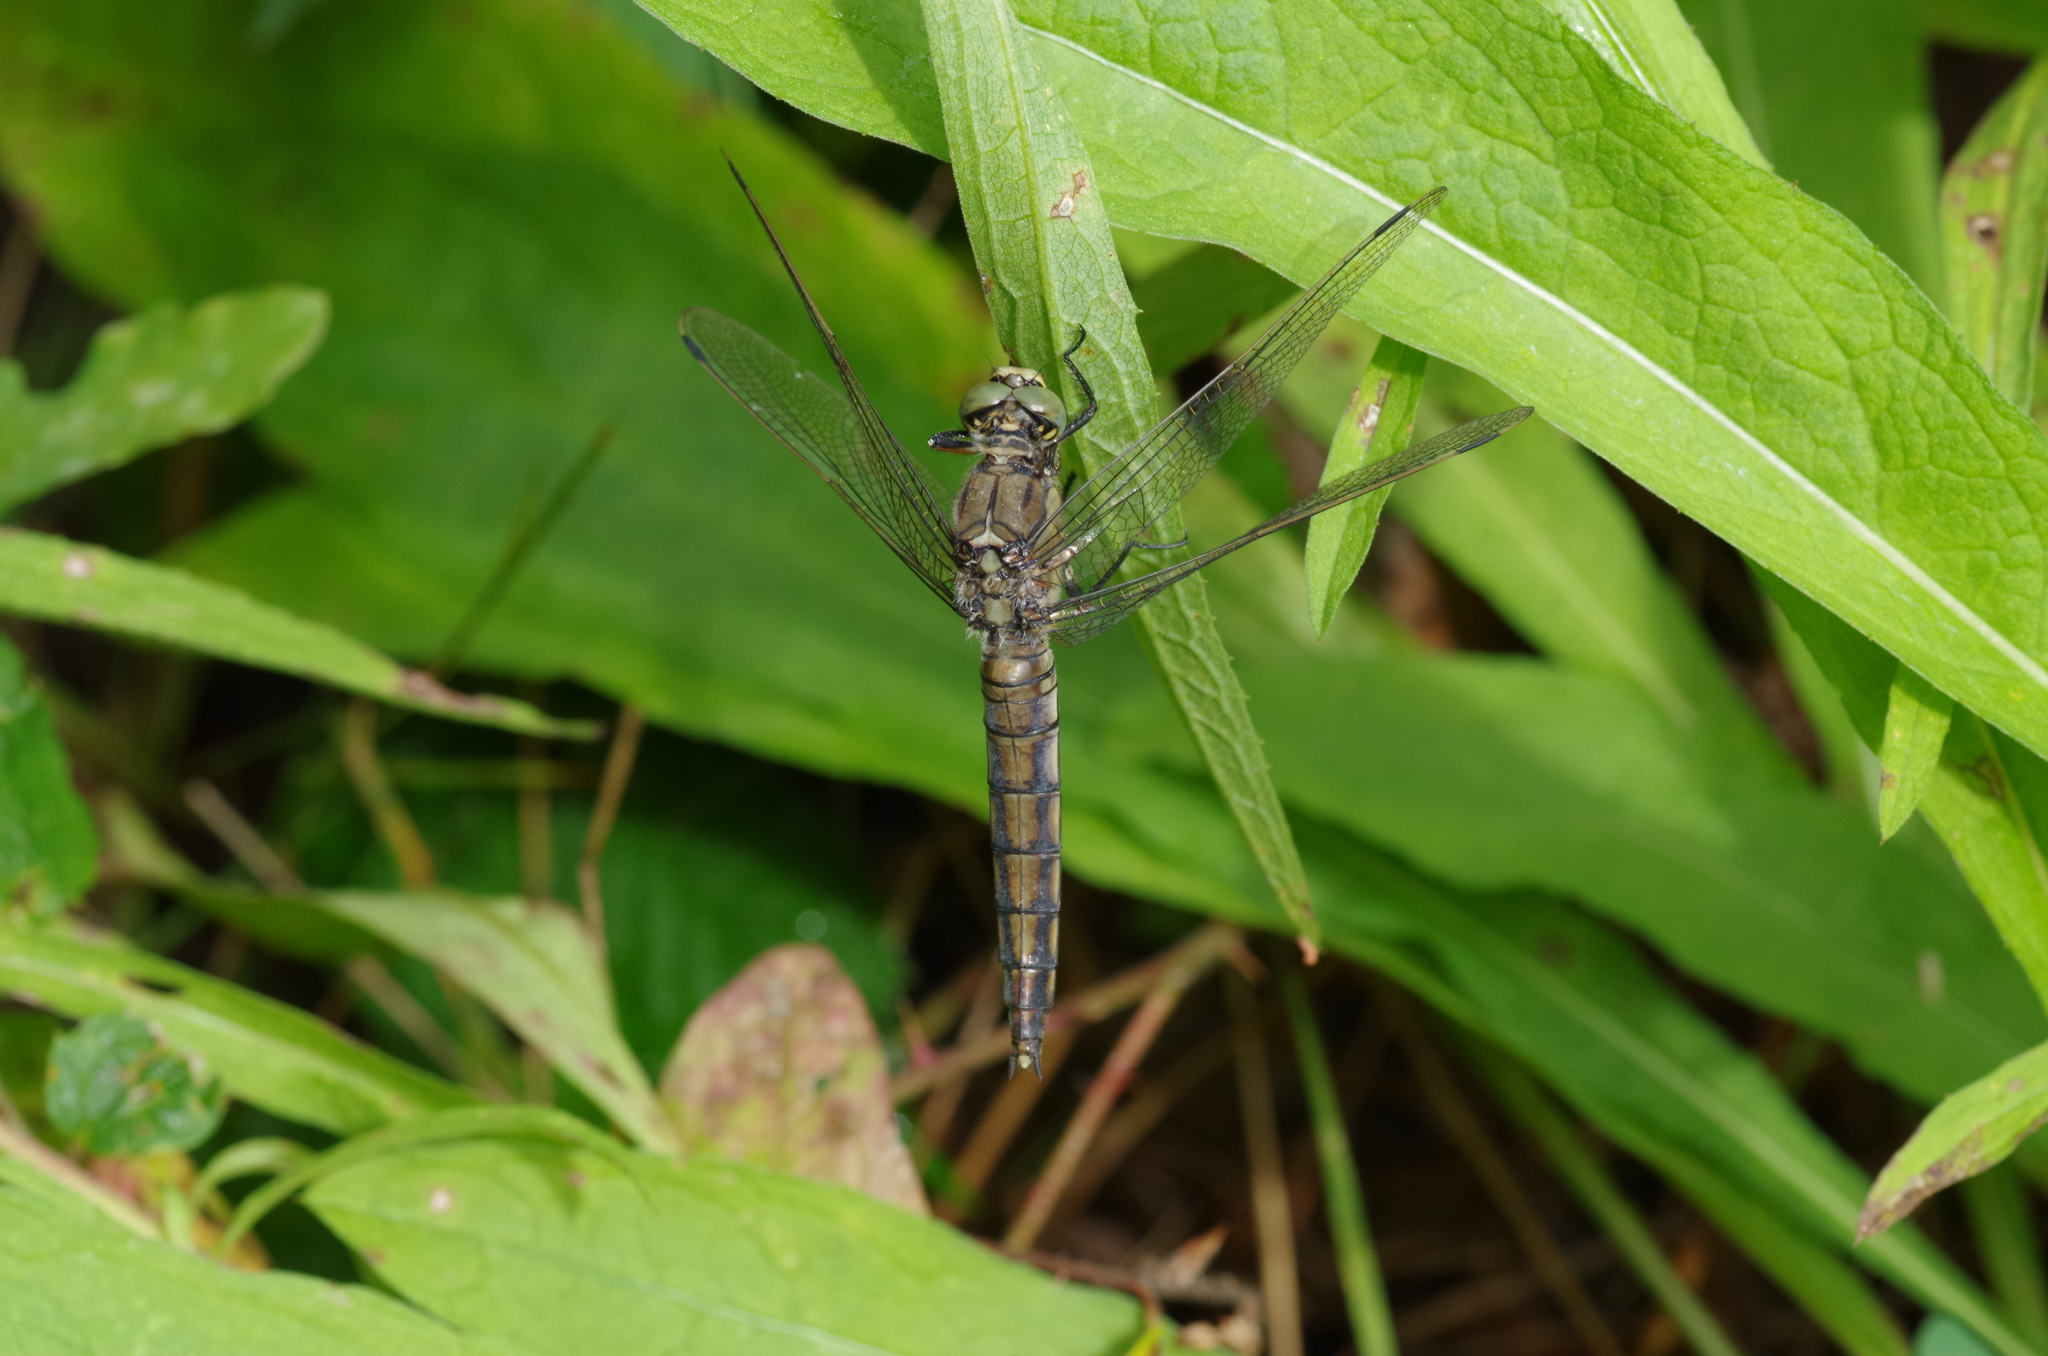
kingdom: Animalia
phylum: Arthropoda
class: Insecta
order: Odonata
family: Libellulidae
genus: Orthetrum
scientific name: Orthetrum cancellatum
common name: Black-tailed skimmer
